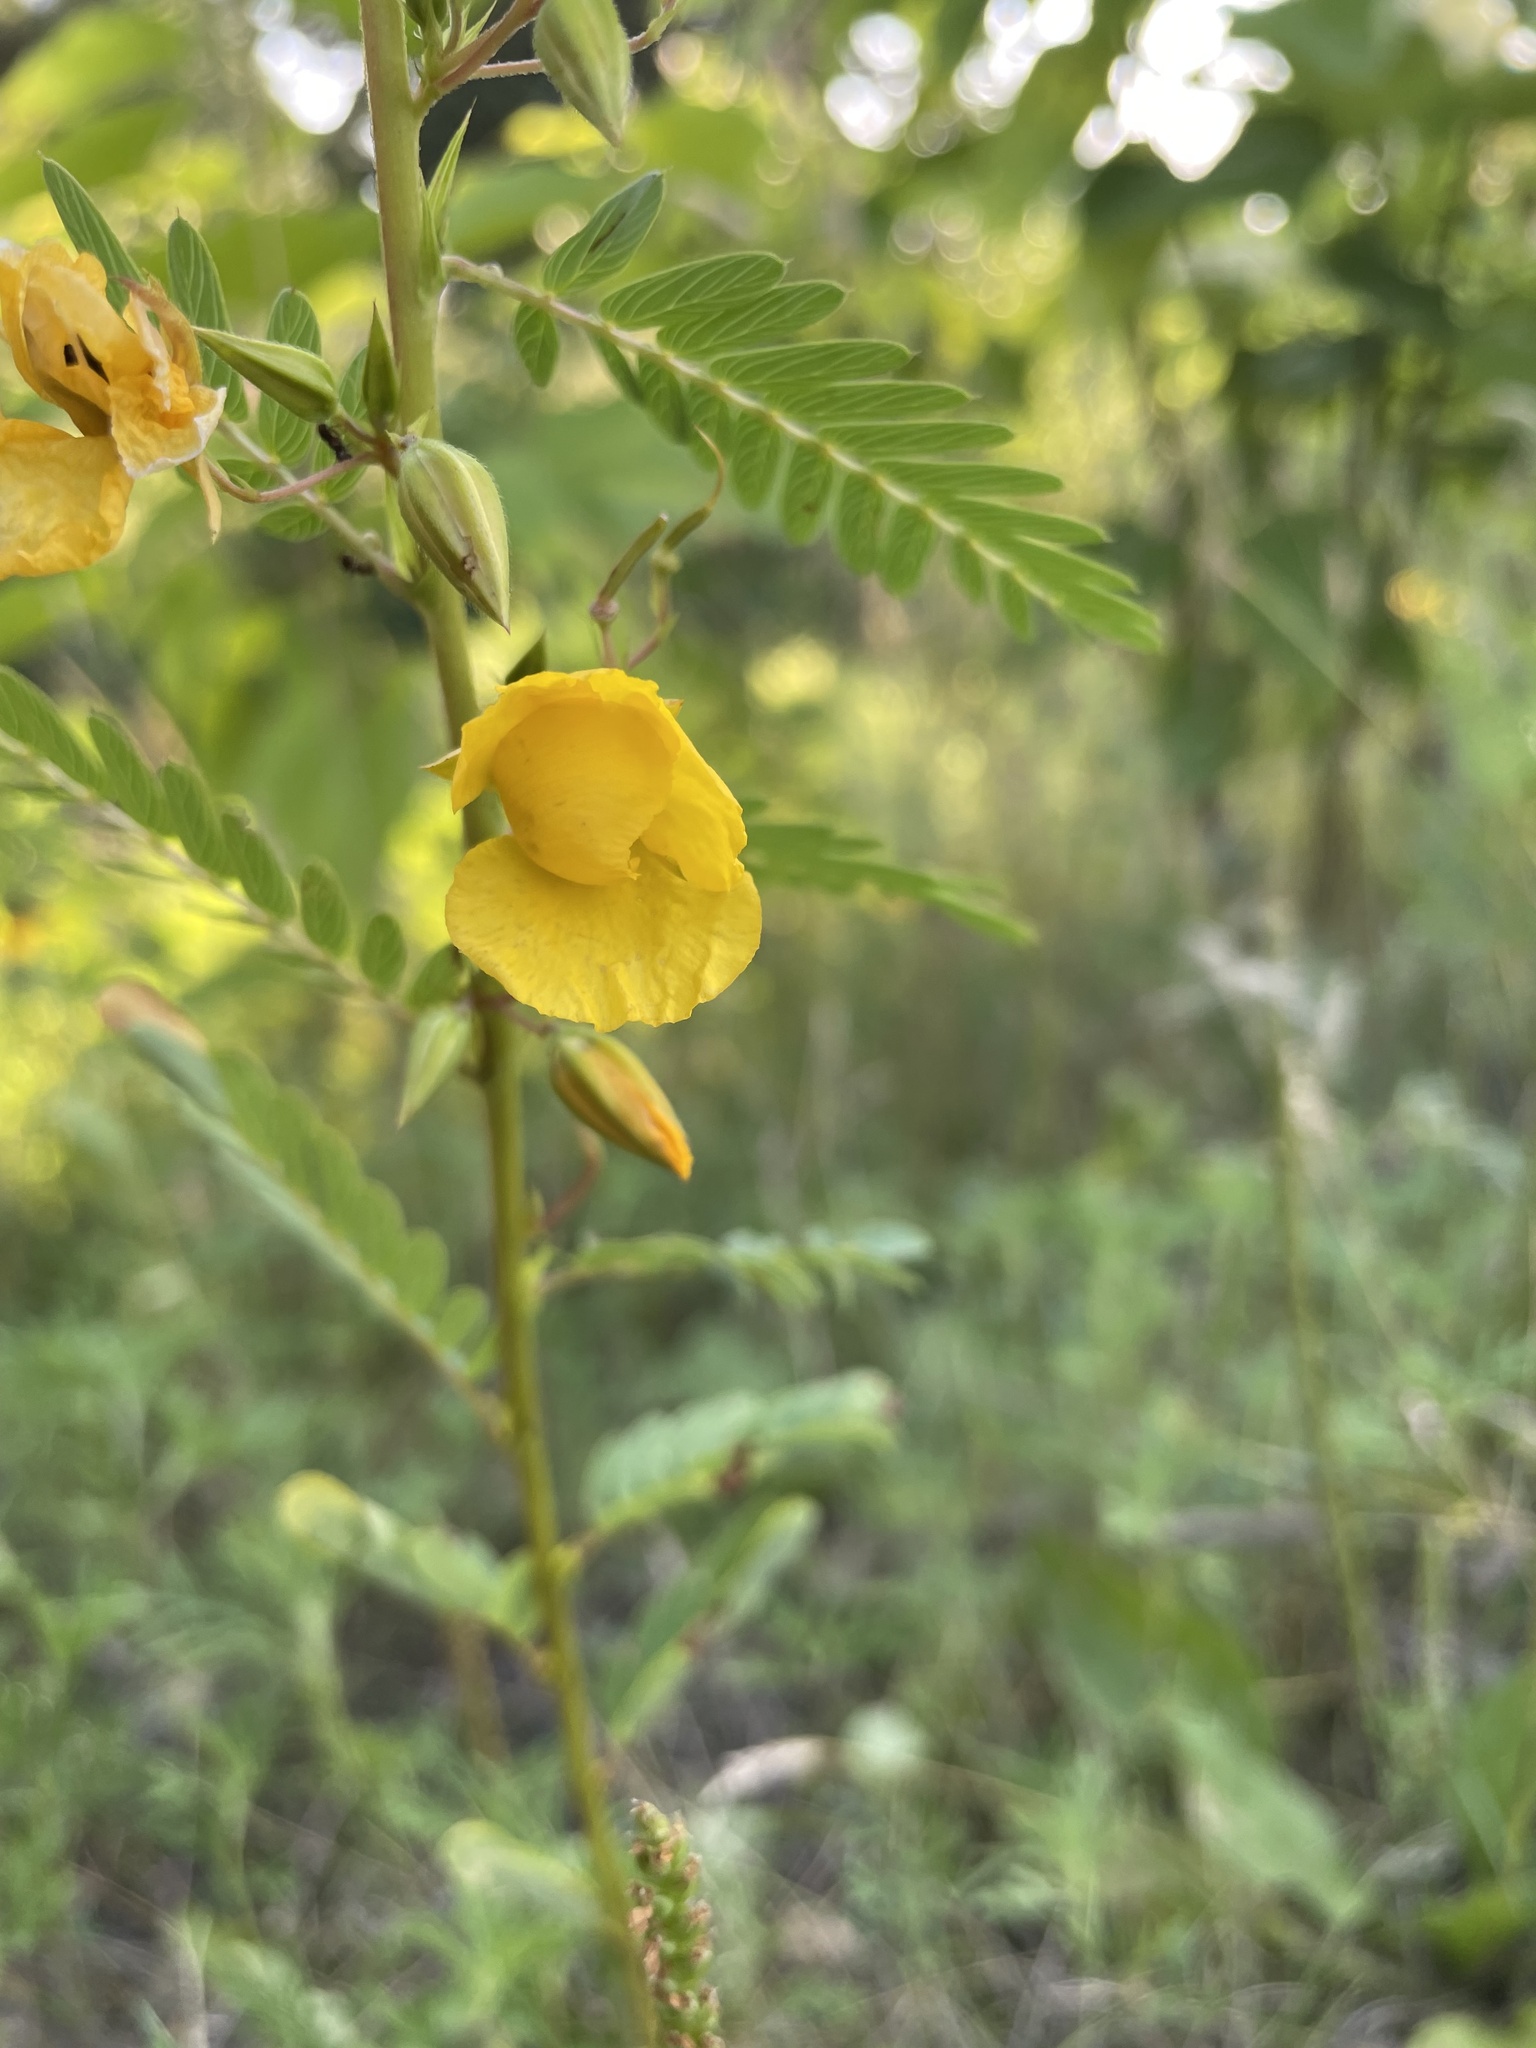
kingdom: Plantae
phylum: Tracheophyta
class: Magnoliopsida
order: Fabales
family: Fabaceae
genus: Chamaecrista
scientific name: Chamaecrista fasciculata
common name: Golden cassia
